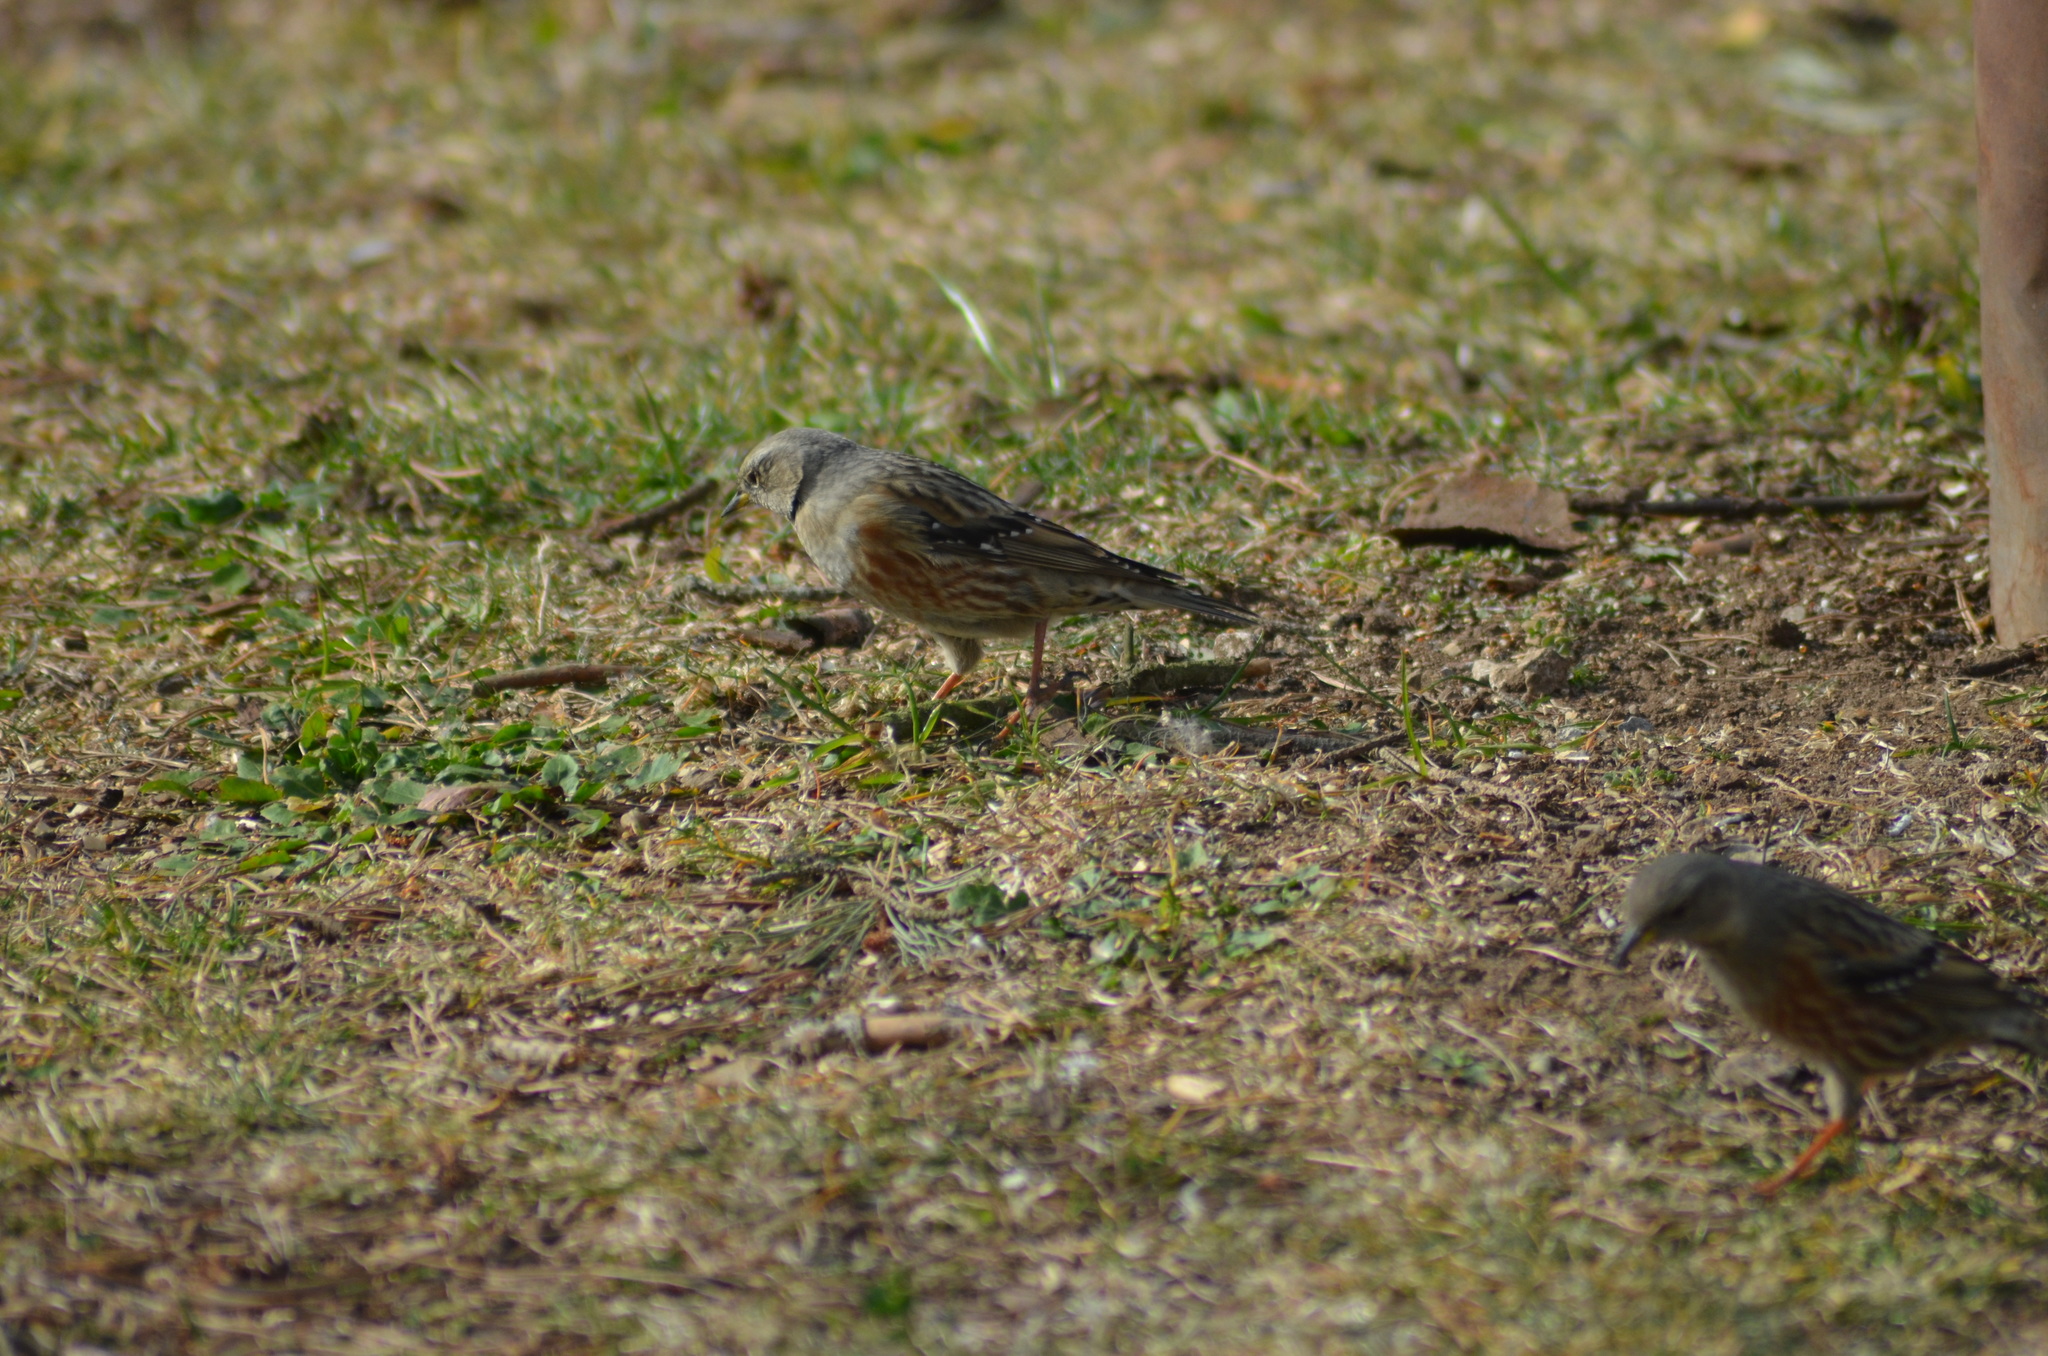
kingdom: Animalia
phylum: Chordata
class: Aves
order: Passeriformes
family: Prunellidae
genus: Prunella
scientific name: Prunella collaris
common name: Alpine accentor
